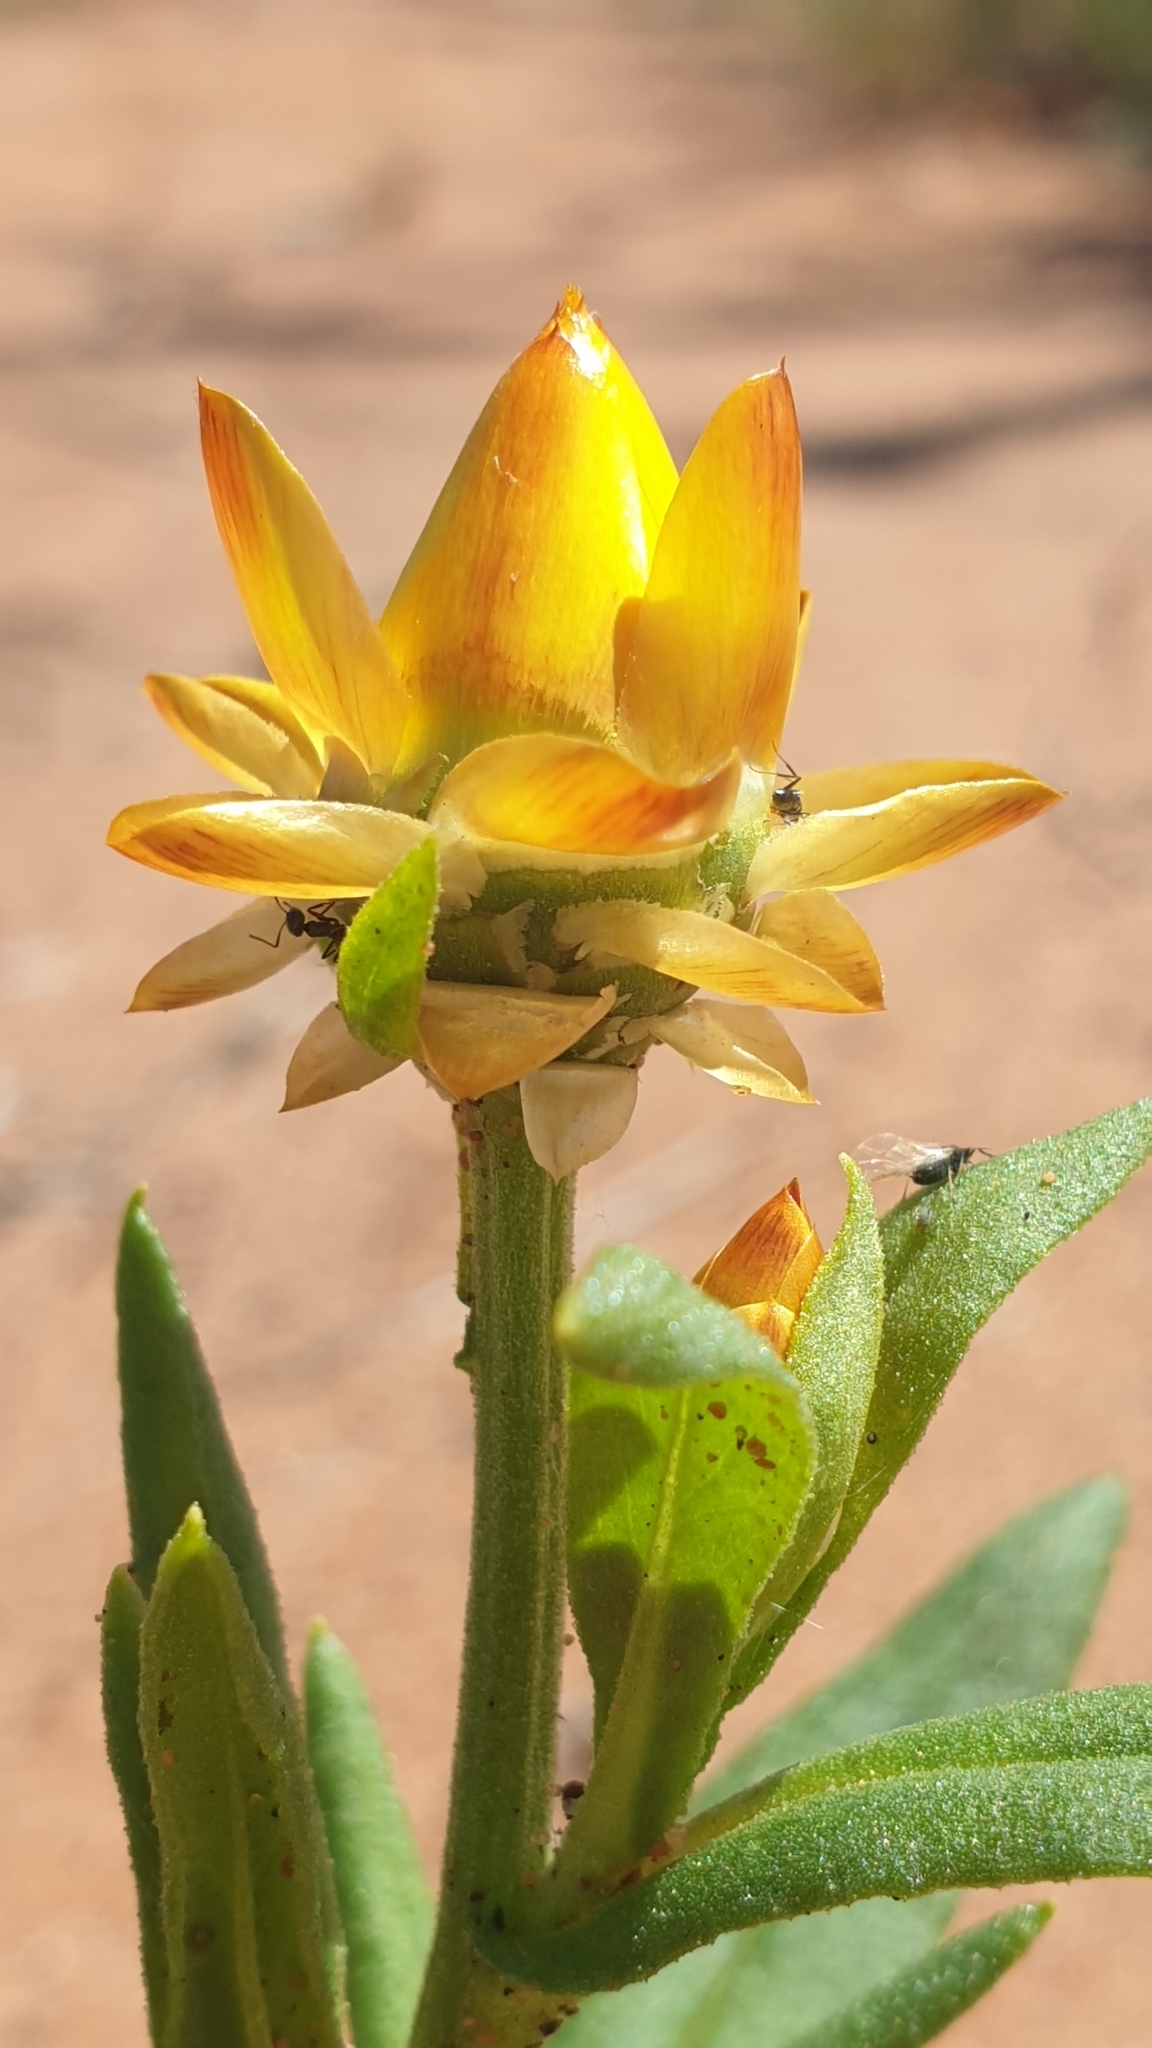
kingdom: Plantae
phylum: Tracheophyta
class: Magnoliopsida
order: Asterales
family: Asteraceae
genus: Xerochrysum
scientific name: Xerochrysum bracteatum
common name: Bracted strawflower
